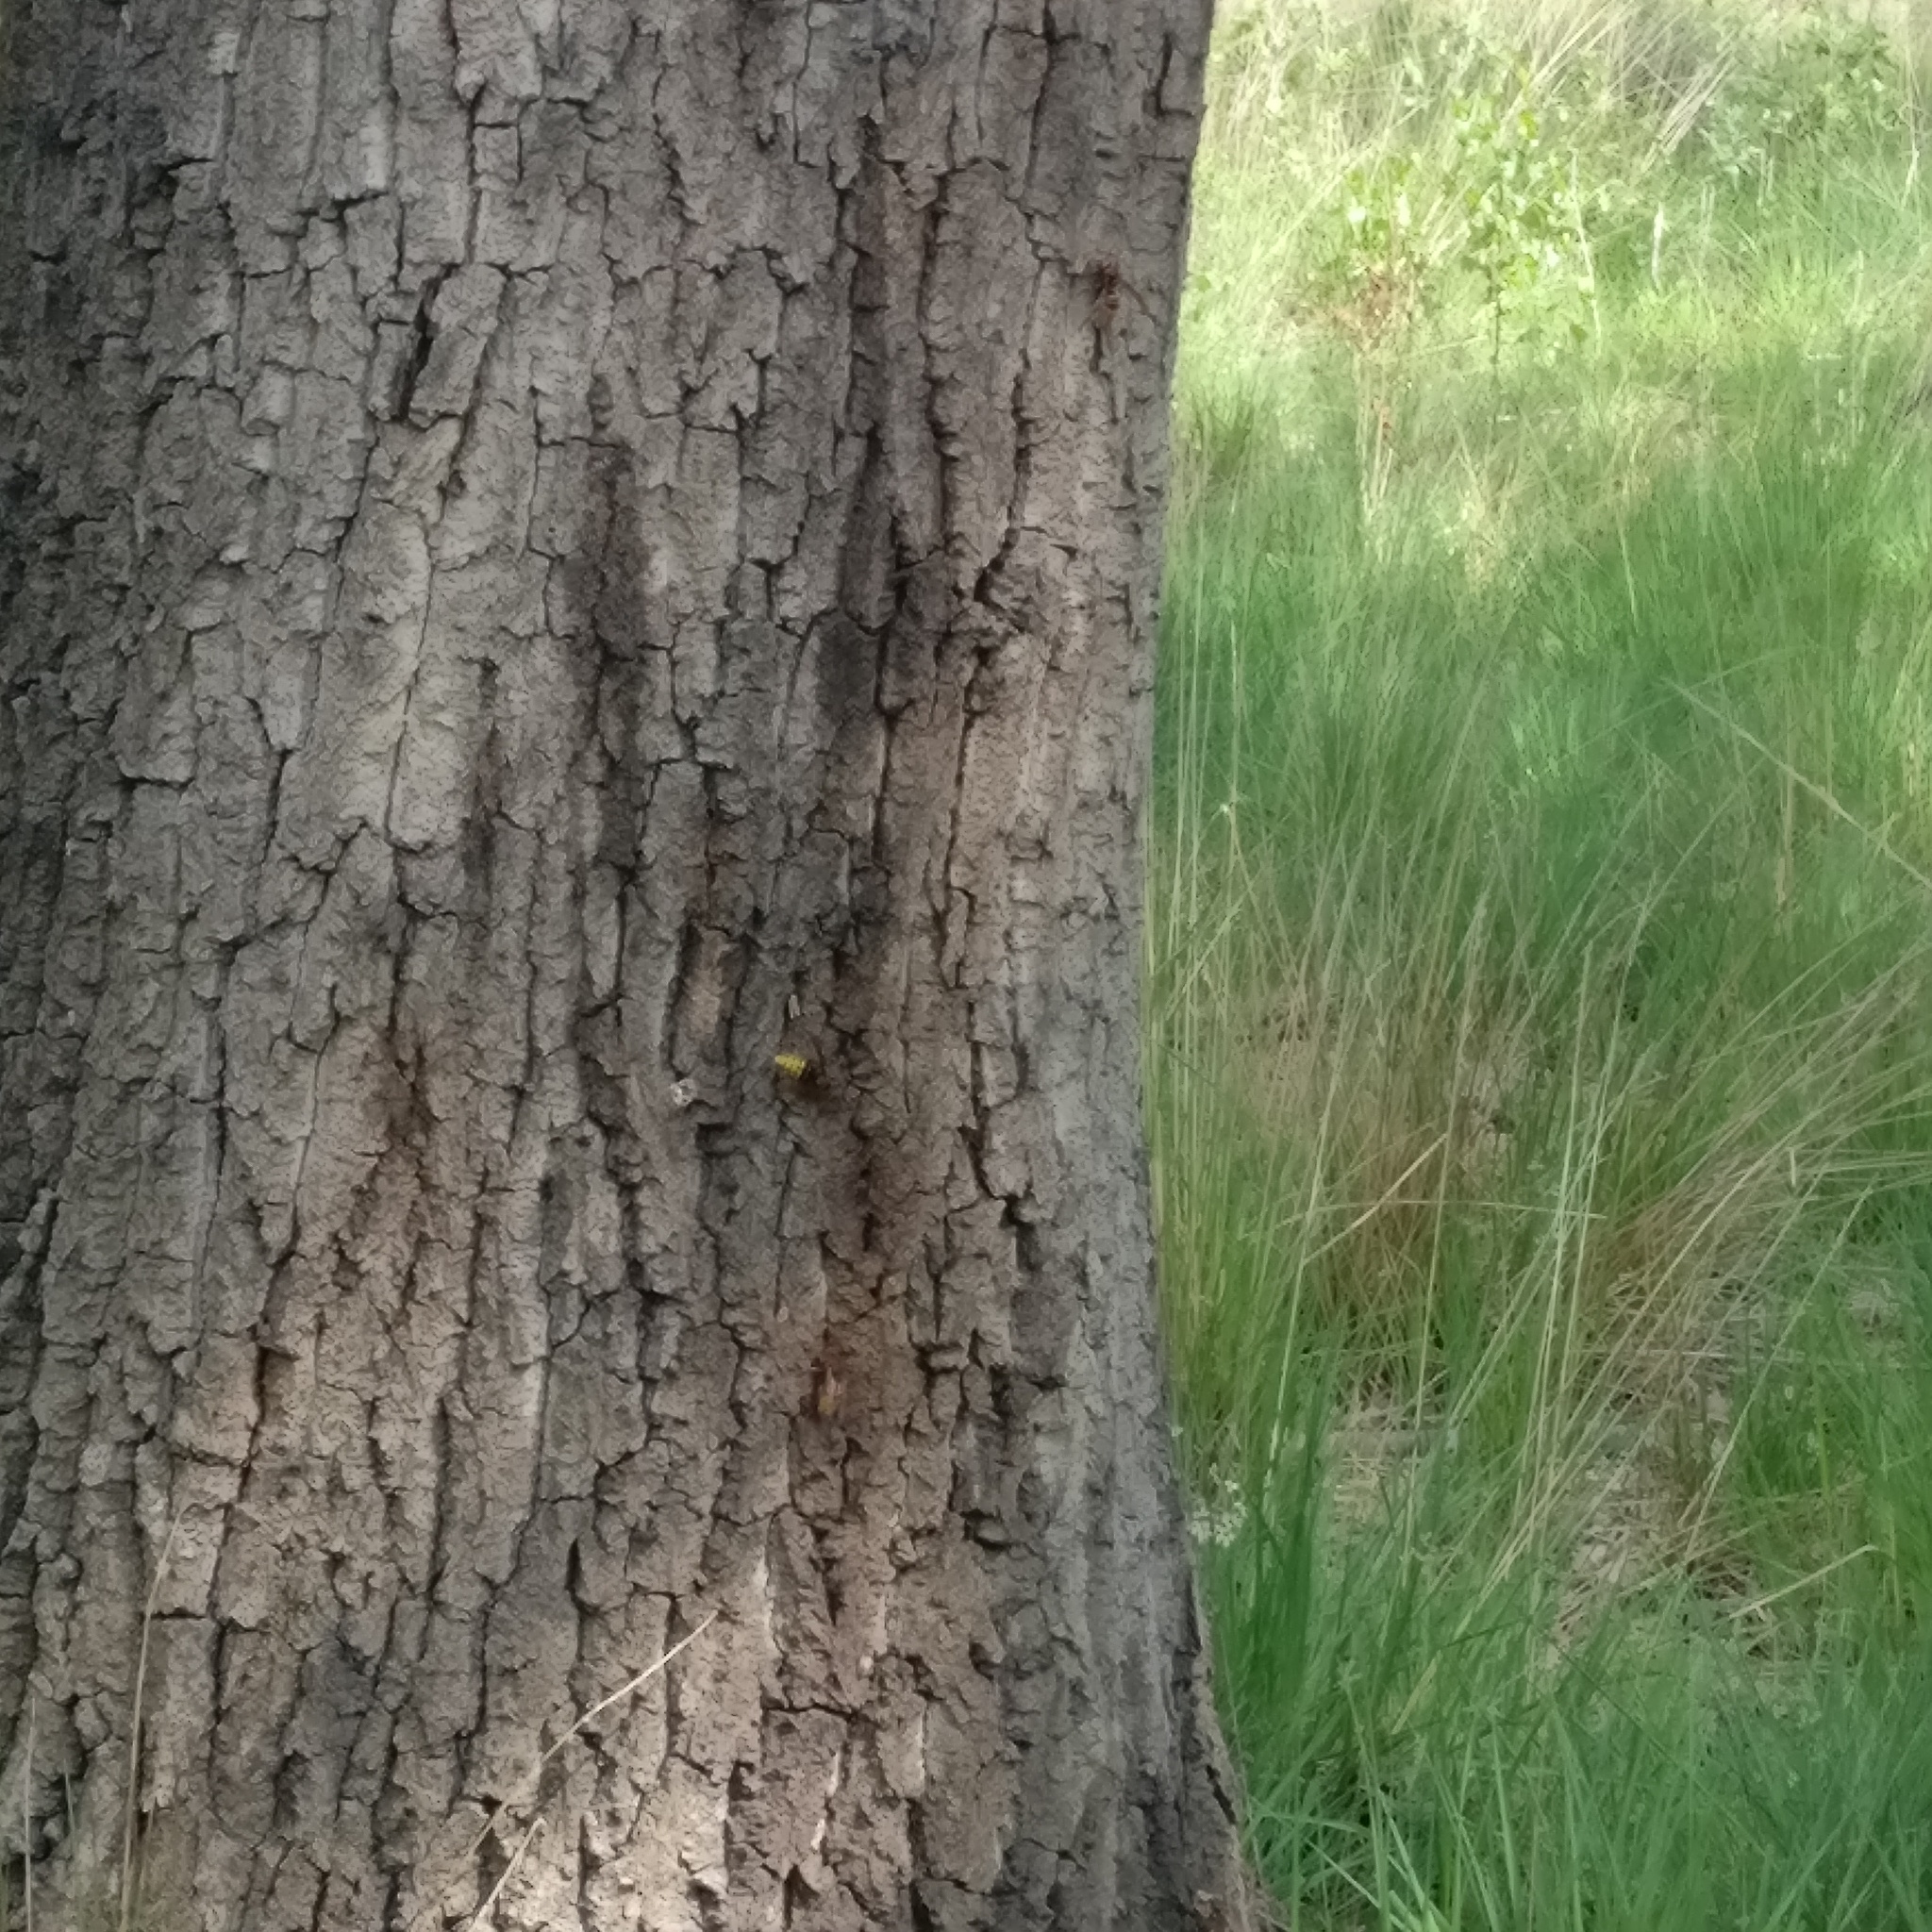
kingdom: Animalia
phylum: Arthropoda
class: Insecta
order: Hymenoptera
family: Vespidae
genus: Vespa
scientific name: Vespa crabro
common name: Hornet
